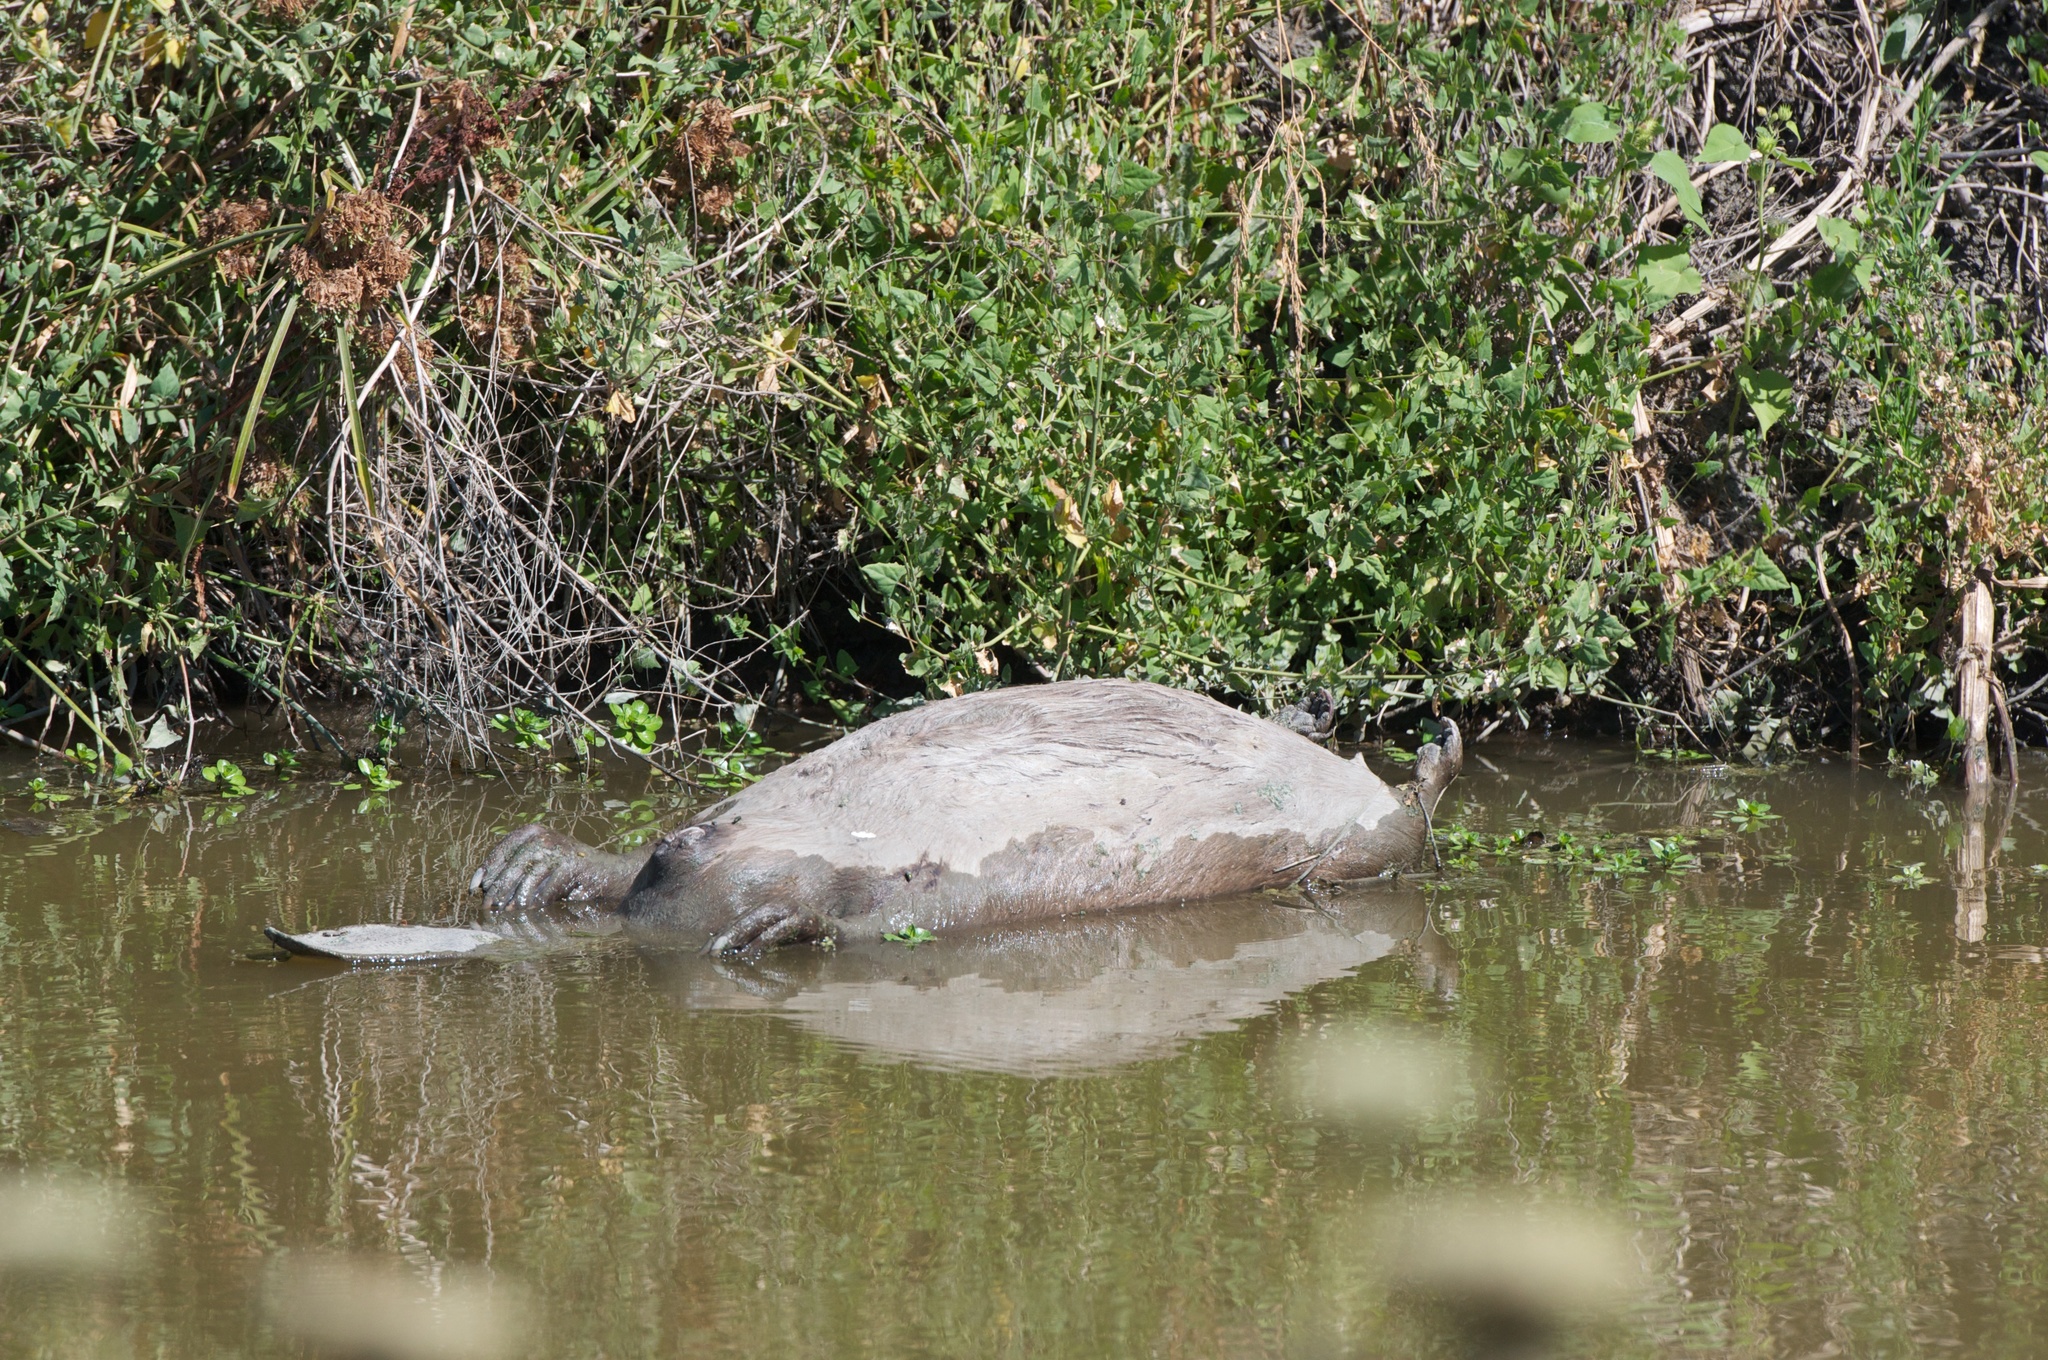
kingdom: Animalia
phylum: Chordata
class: Mammalia
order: Rodentia
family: Castoridae
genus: Castor
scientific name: Castor canadensis
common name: American beaver
